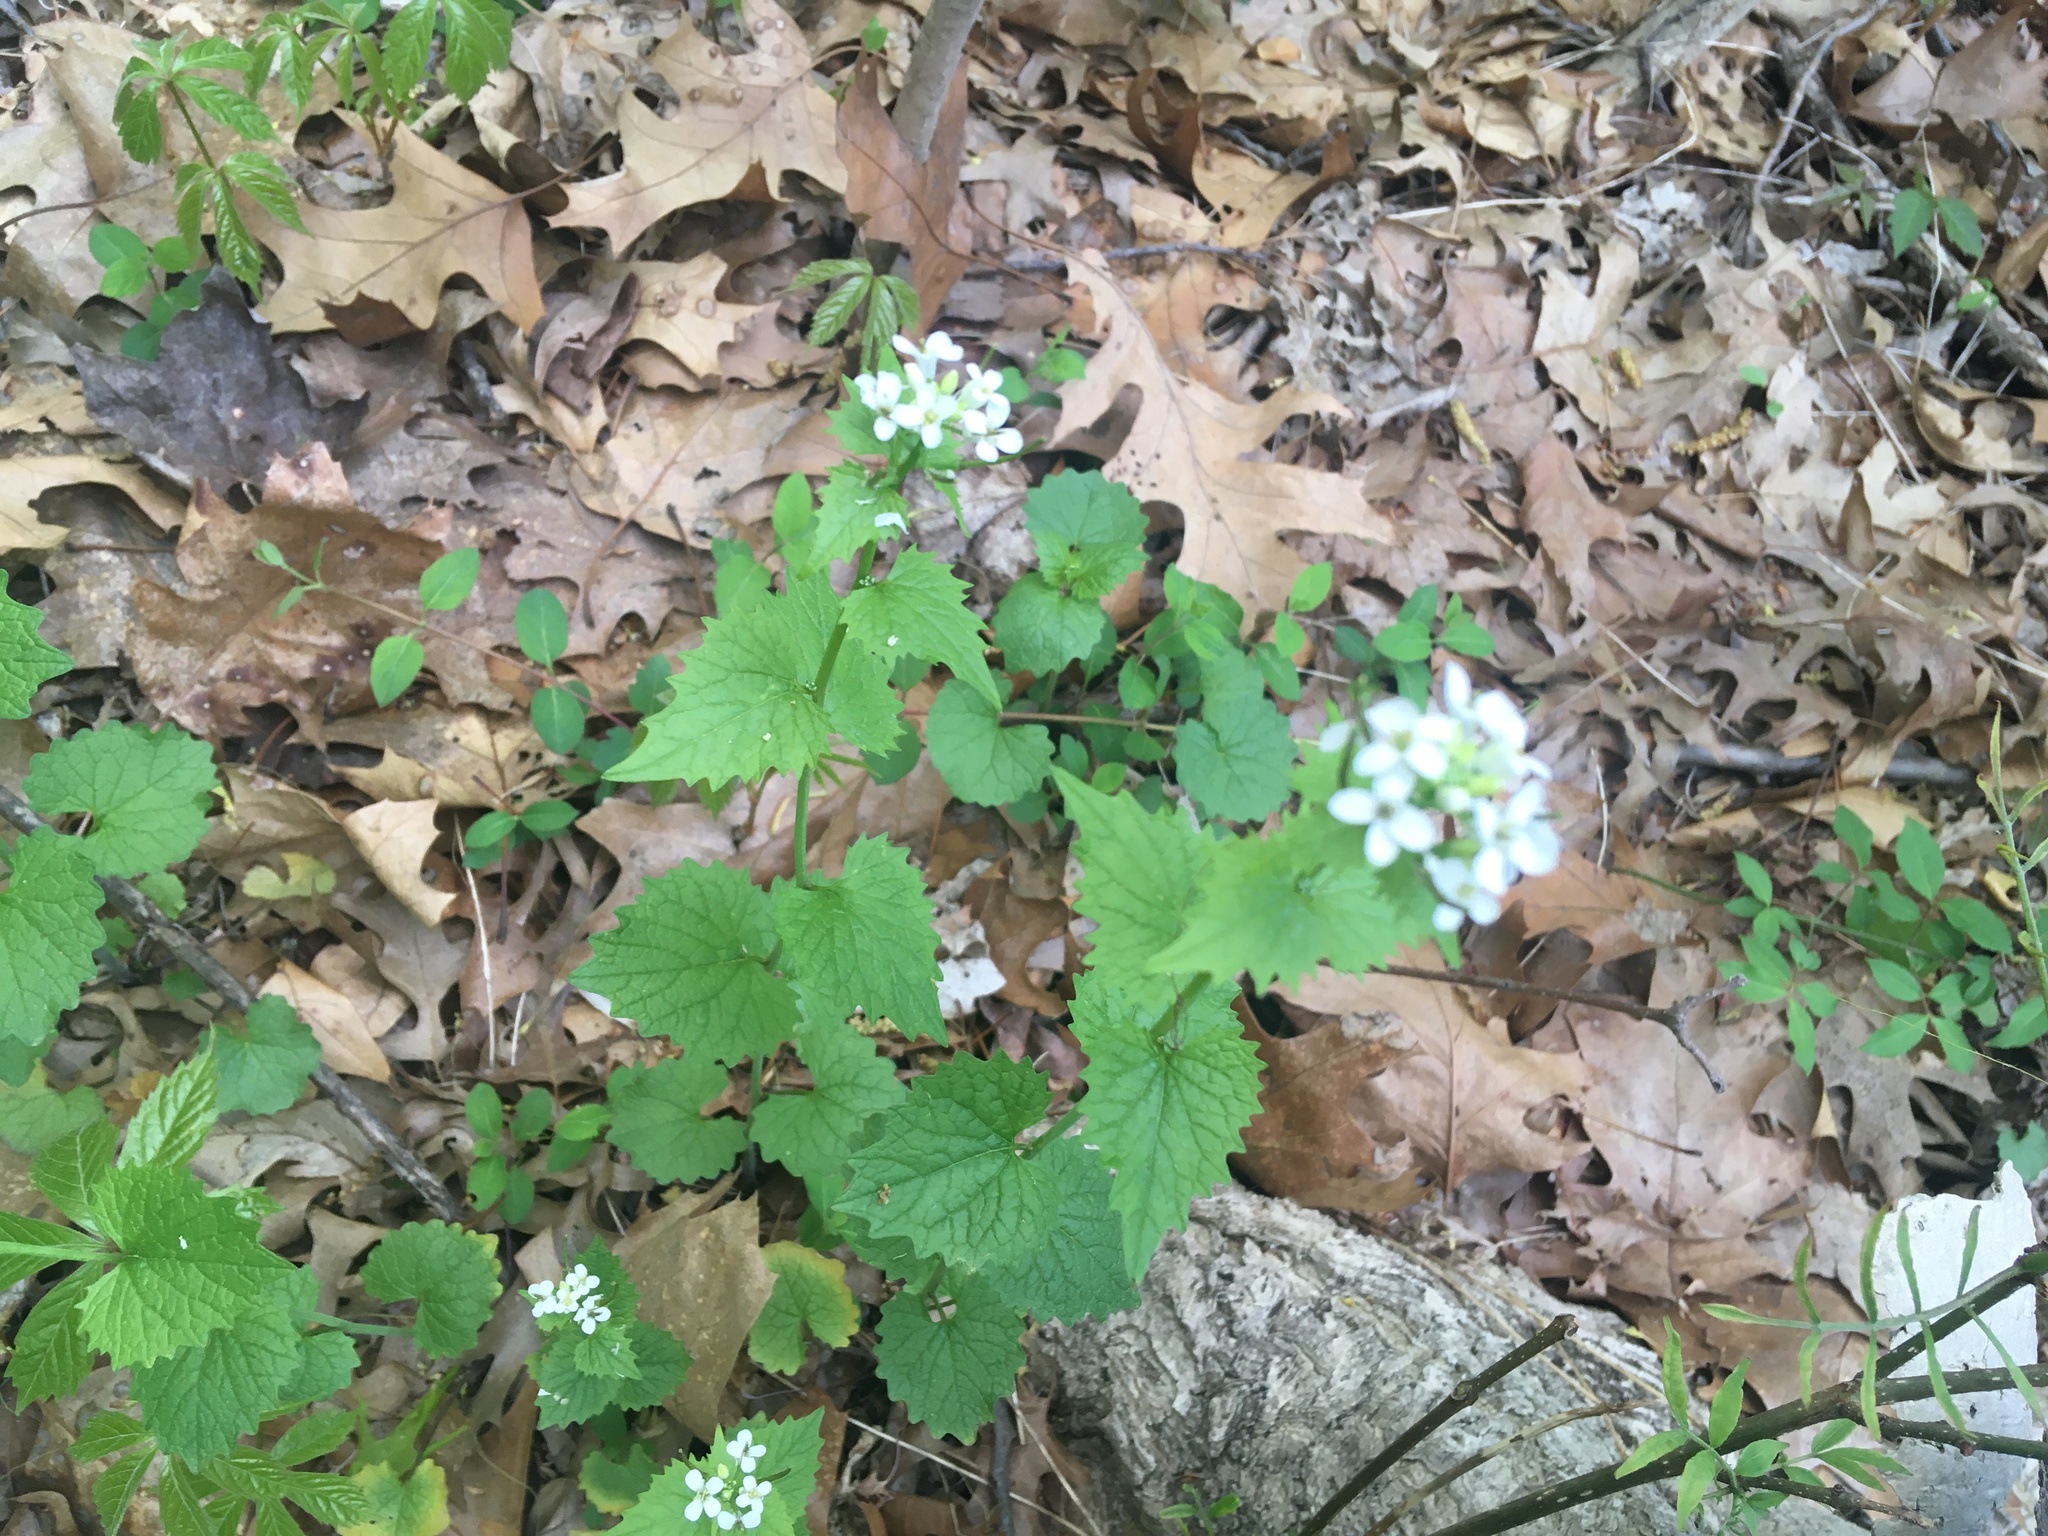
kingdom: Plantae
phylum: Tracheophyta
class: Magnoliopsida
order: Brassicales
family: Brassicaceae
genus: Alliaria
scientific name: Alliaria petiolata
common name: Garlic mustard
